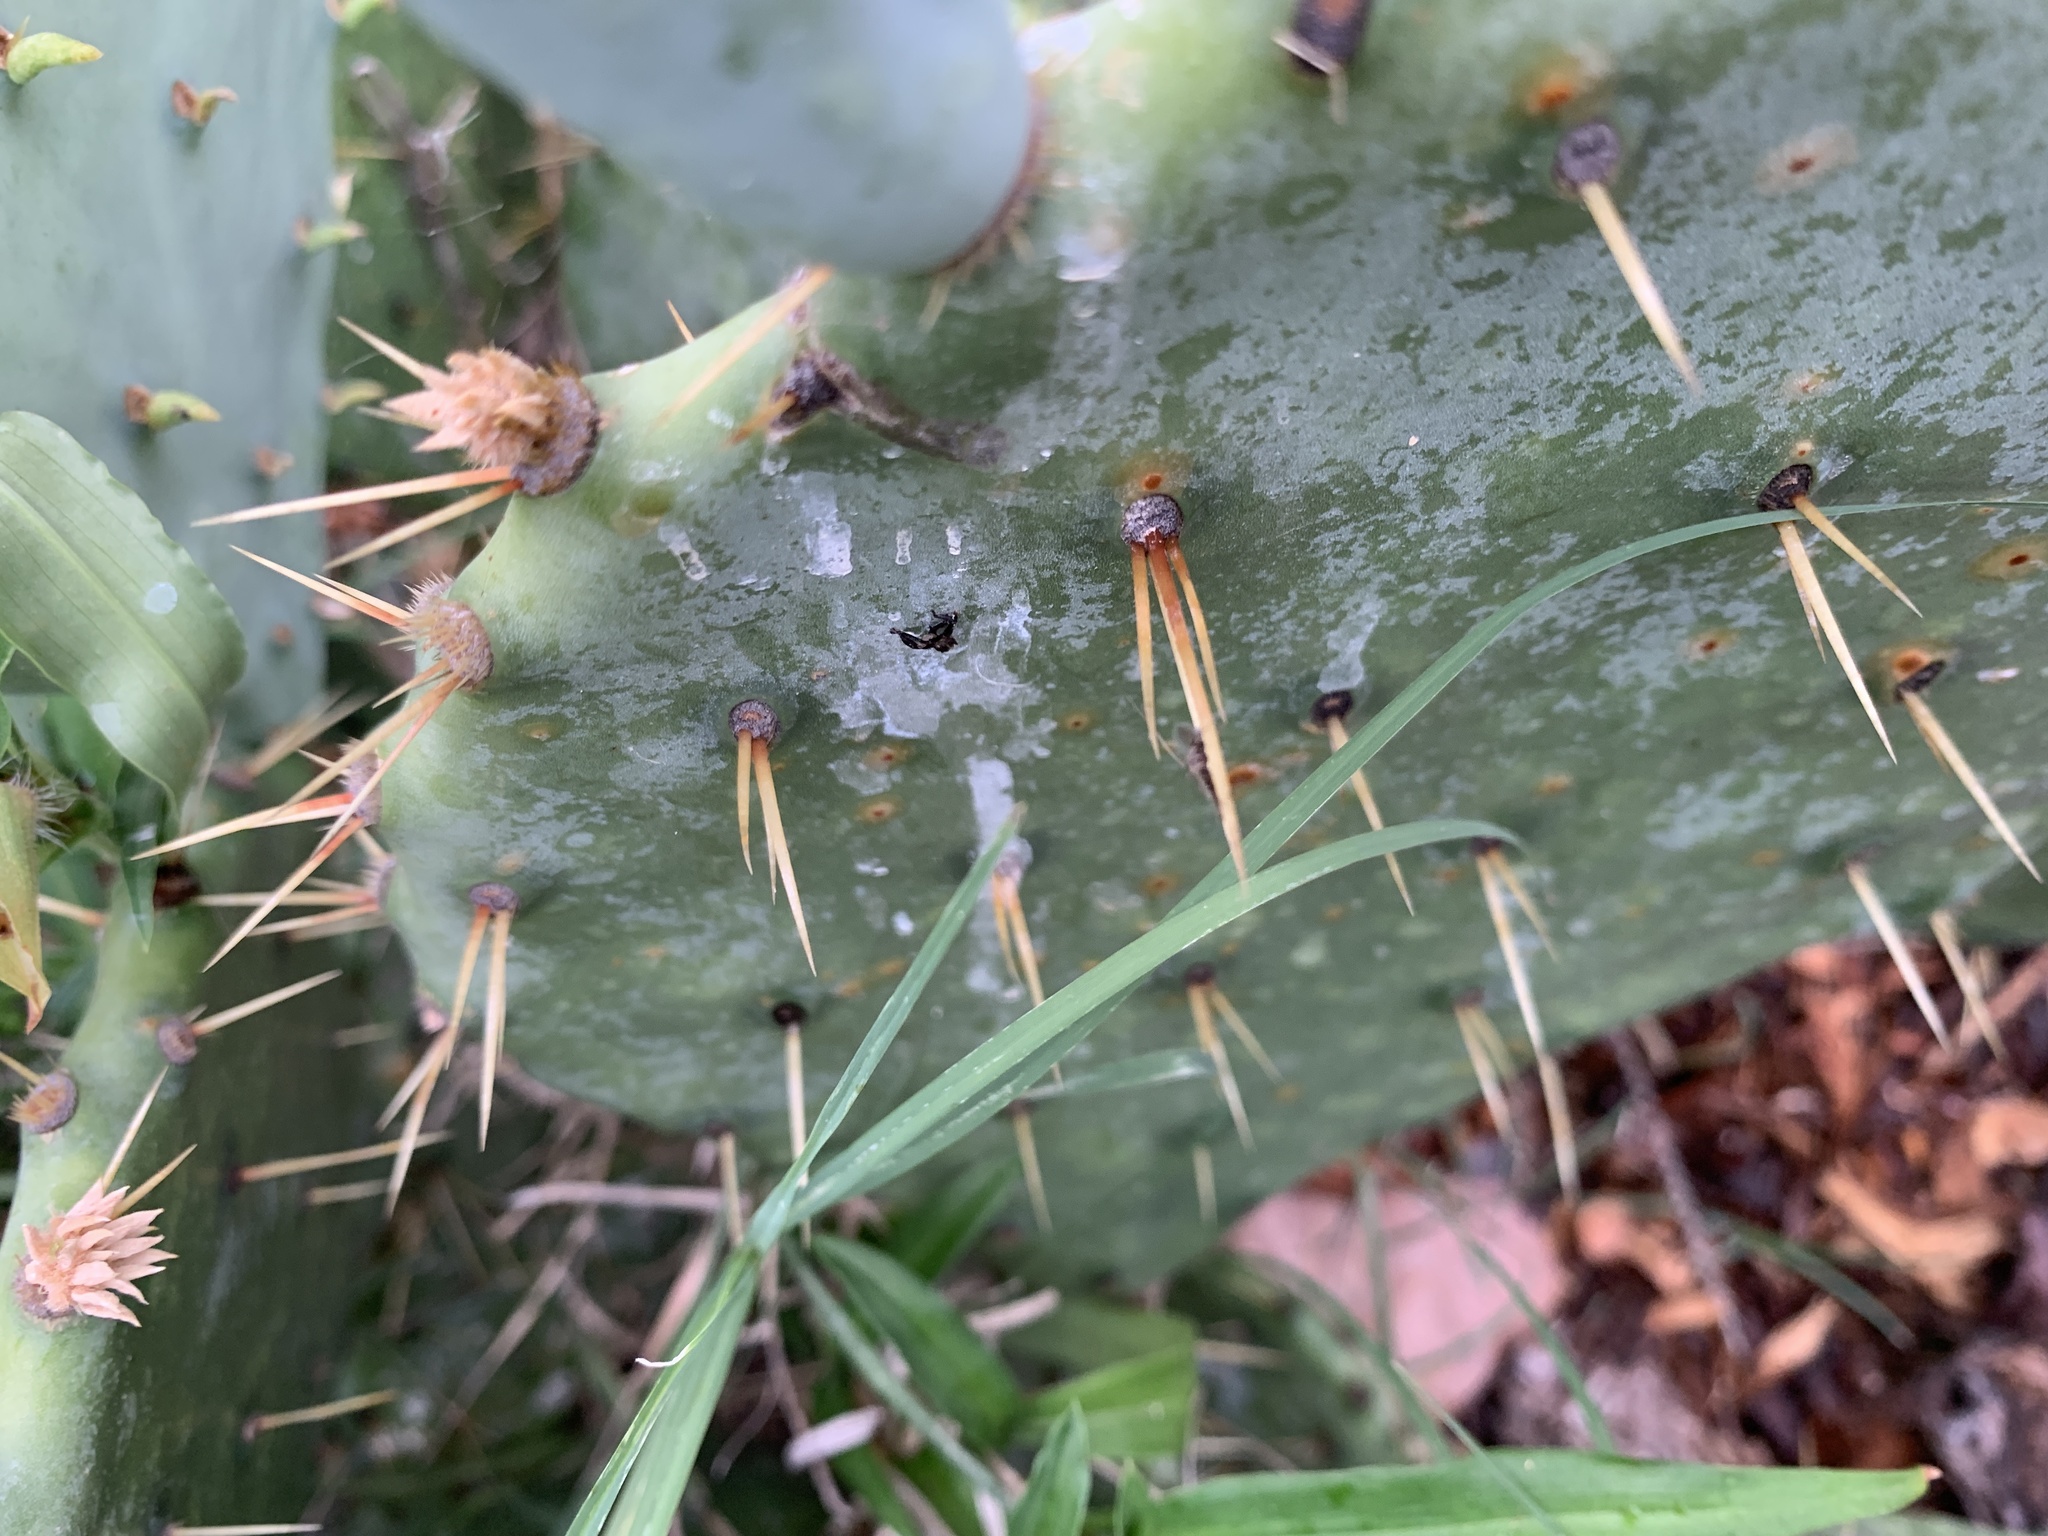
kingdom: Plantae
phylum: Tracheophyta
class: Magnoliopsida
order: Caryophyllales
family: Cactaceae
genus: Opuntia
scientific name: Opuntia orbiculata
